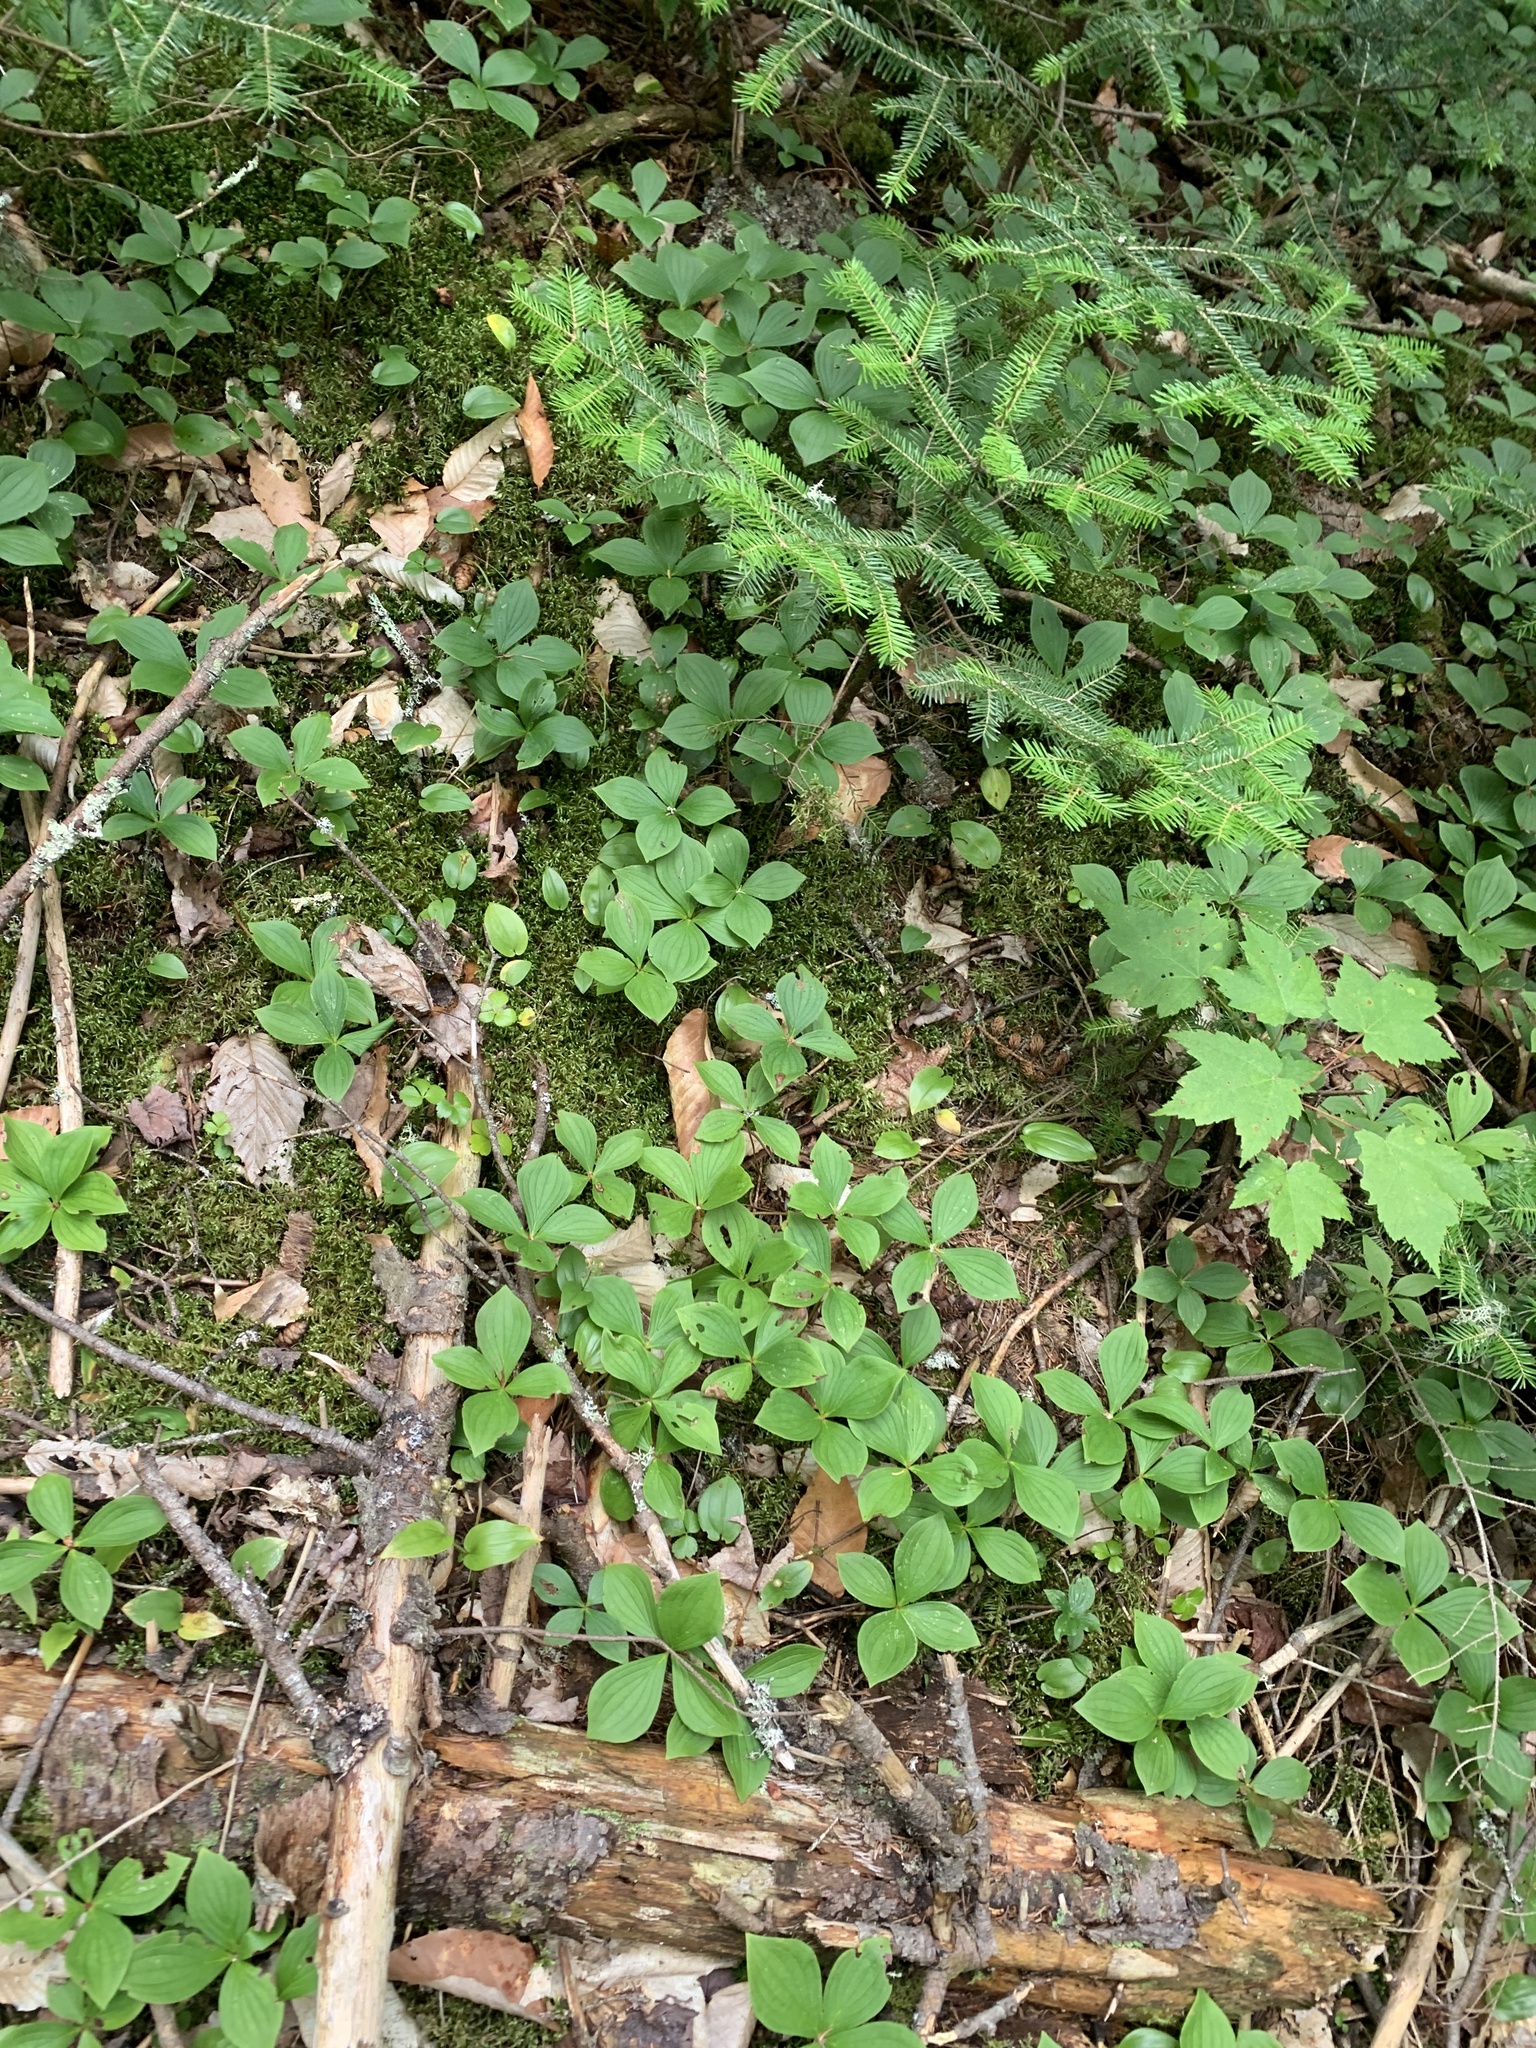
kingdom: Plantae
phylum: Tracheophyta
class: Magnoliopsida
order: Cornales
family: Cornaceae
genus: Cornus
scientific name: Cornus canadensis
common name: Creeping dogwood
